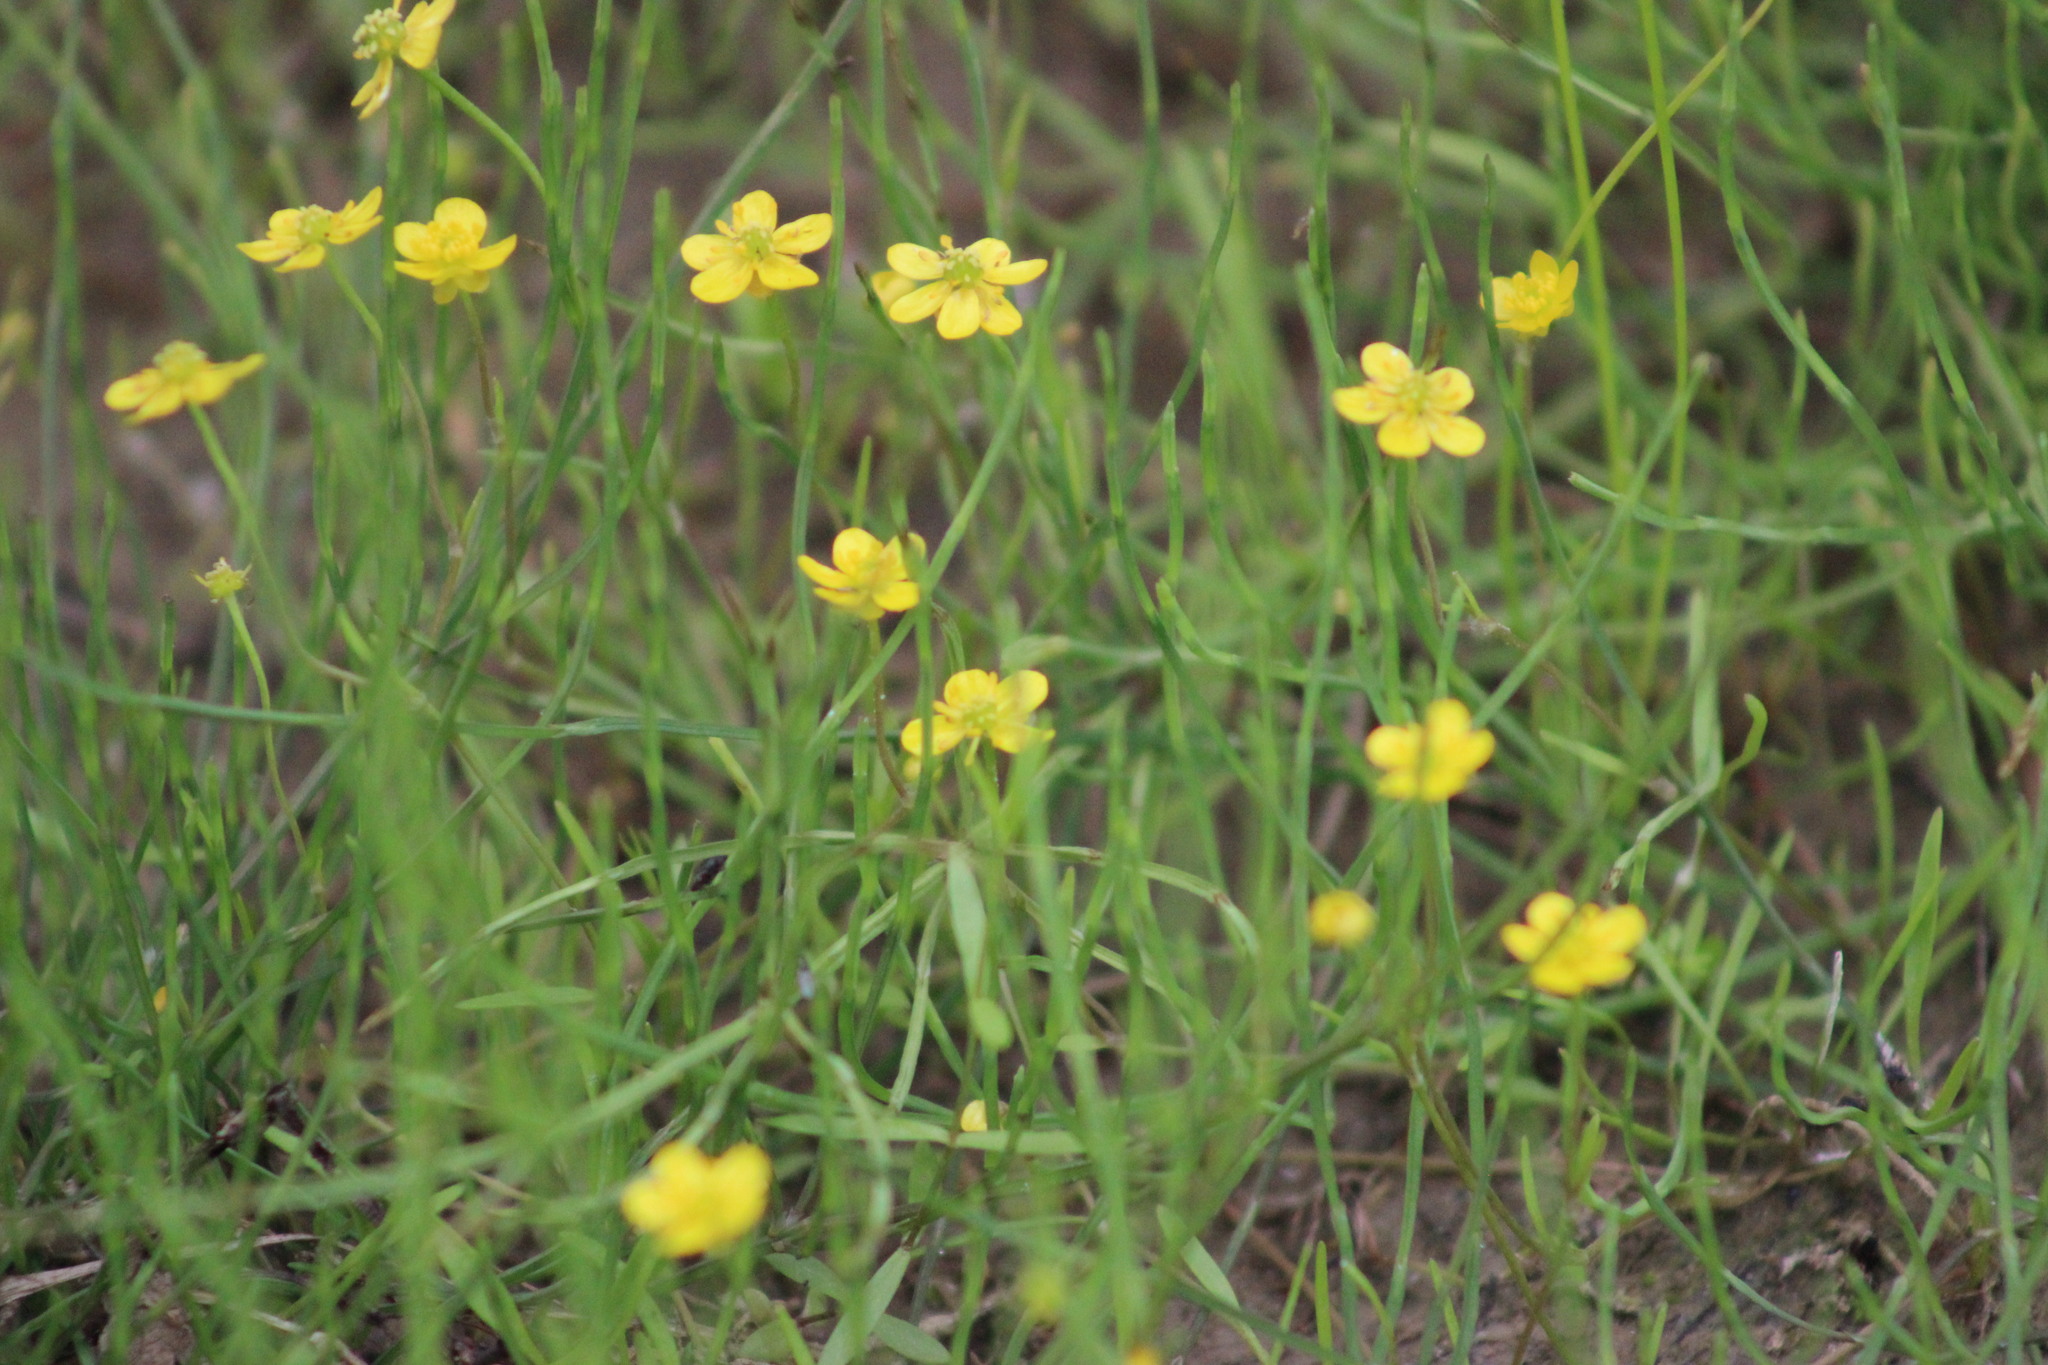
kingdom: Plantae
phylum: Tracheophyta
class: Magnoliopsida
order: Ranunculales
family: Ranunculaceae
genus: Ranunculus
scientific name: Ranunculus reptans
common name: Creeping spearwort
